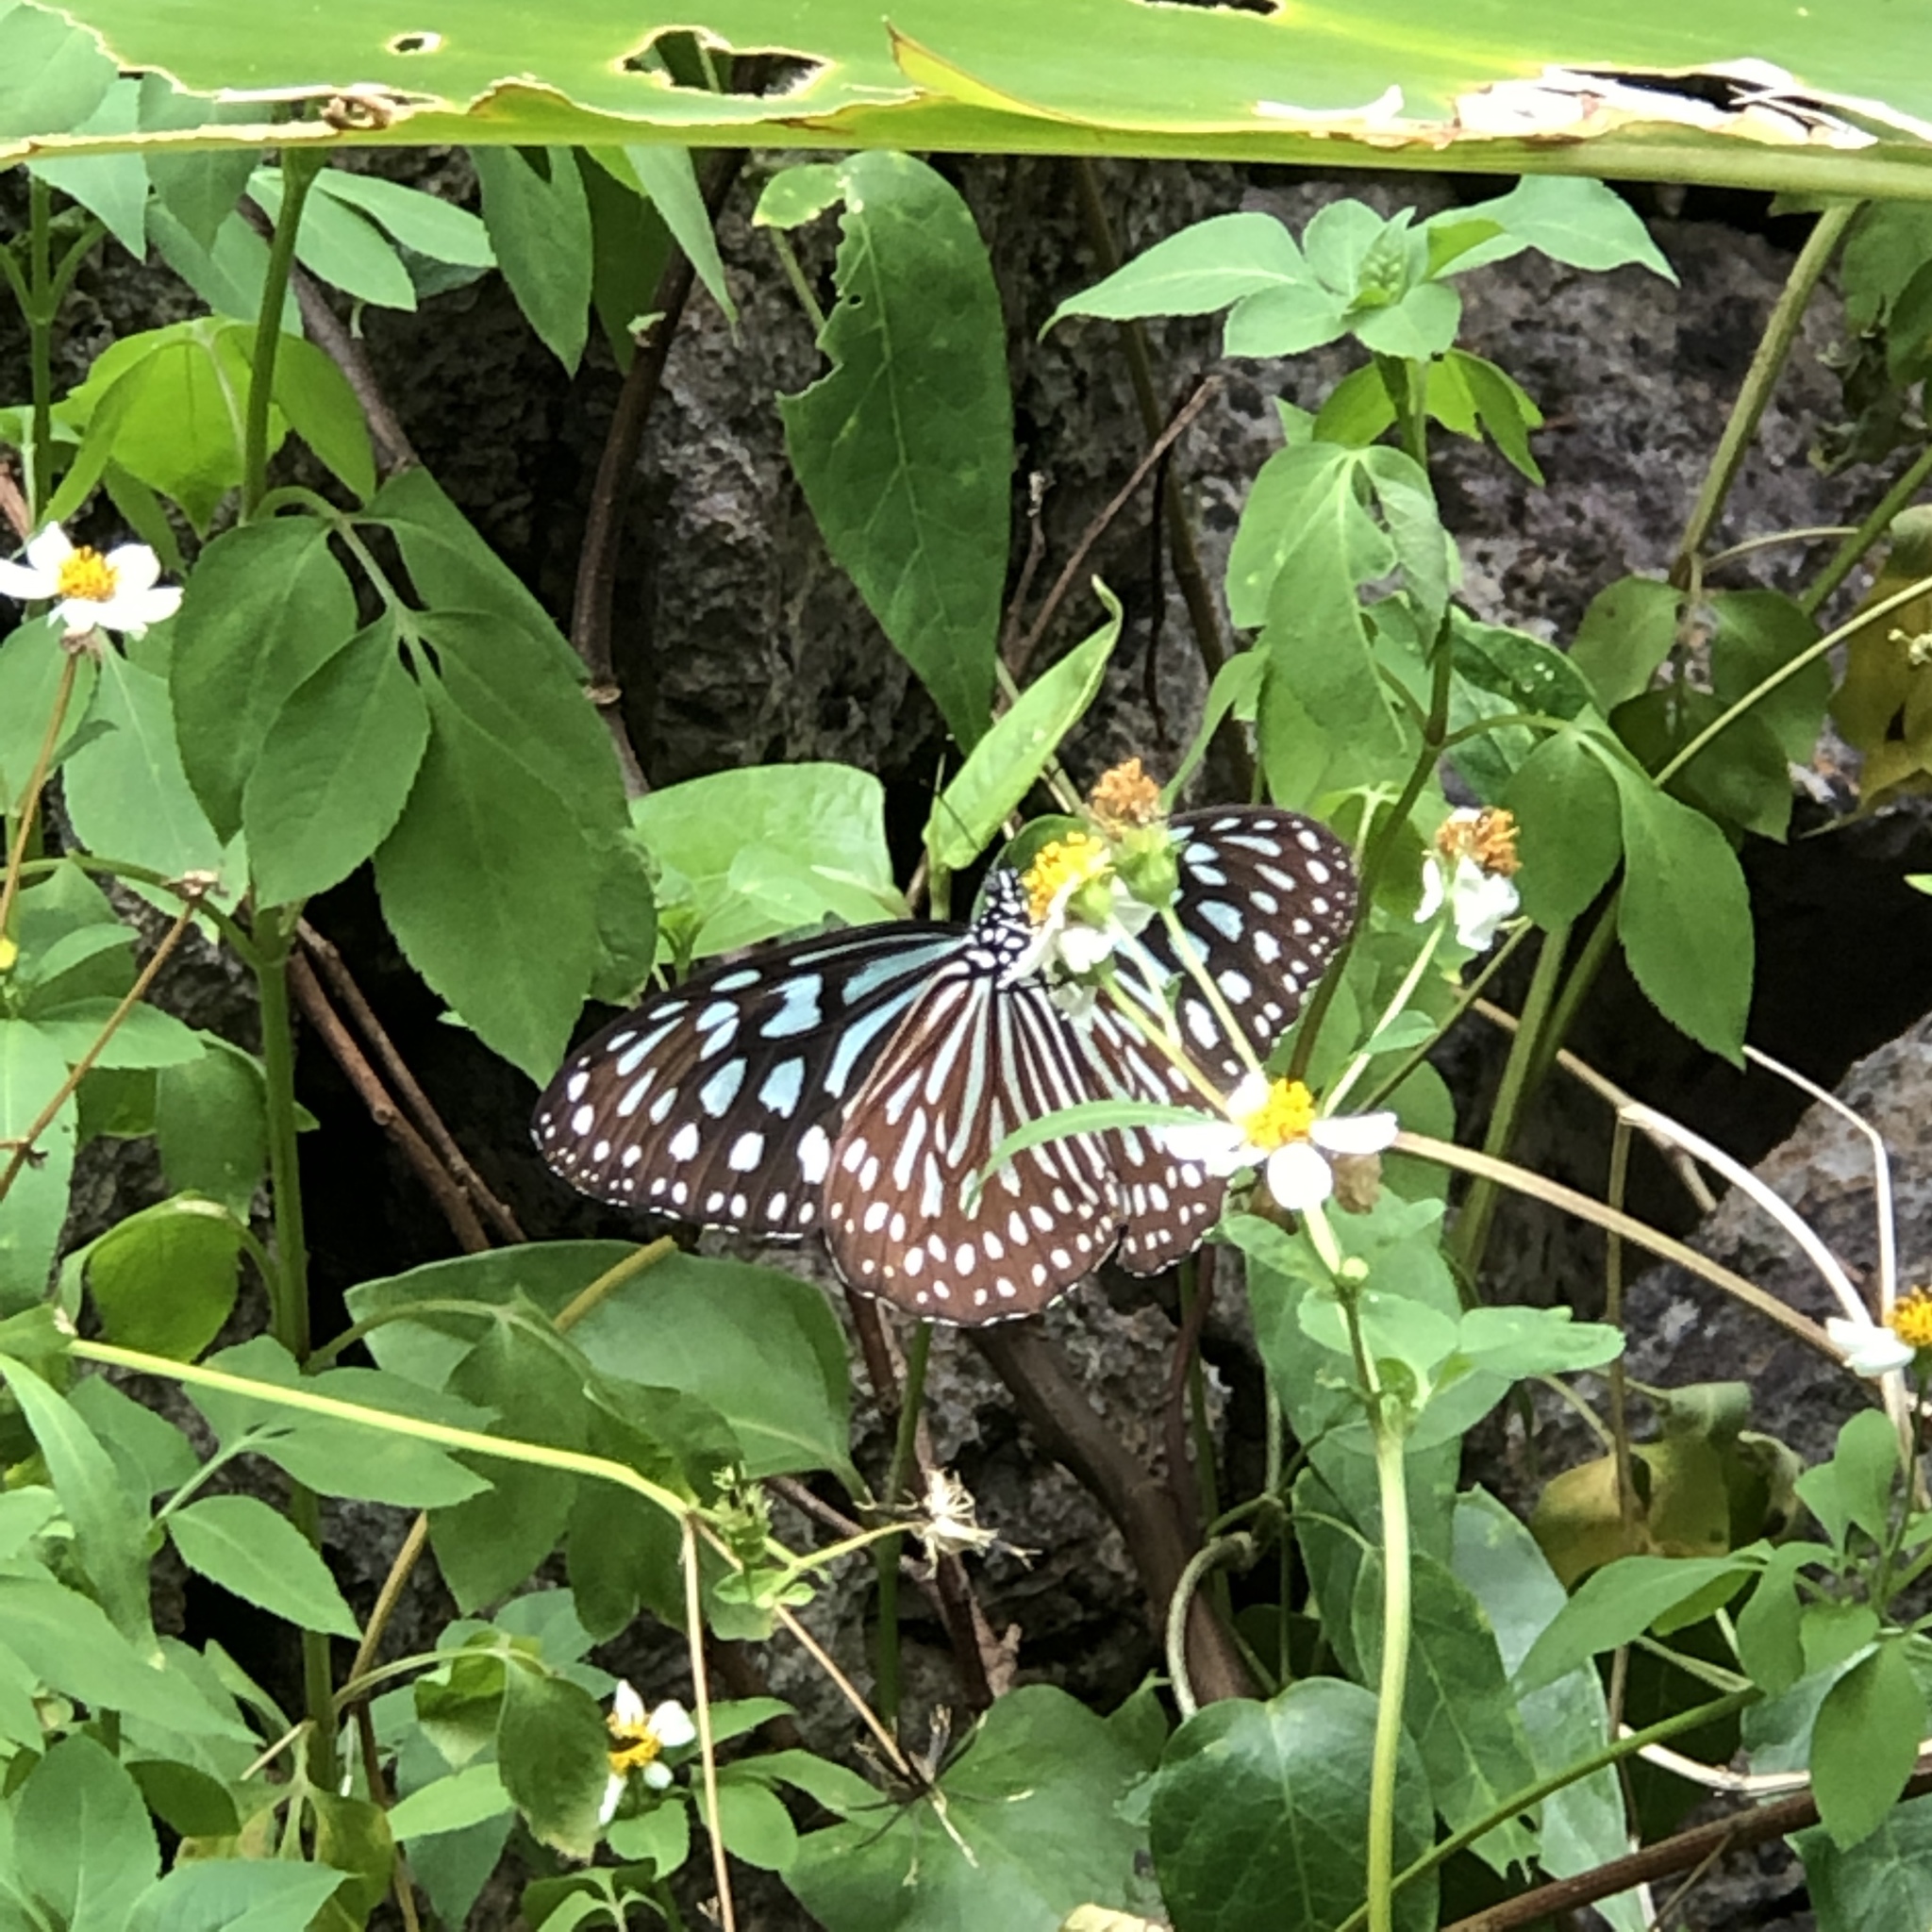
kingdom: Animalia
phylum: Arthropoda
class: Insecta
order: Lepidoptera
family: Nymphalidae
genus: Ideopsis
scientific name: Ideopsis similis
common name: Ceylon blue glassy tiger
